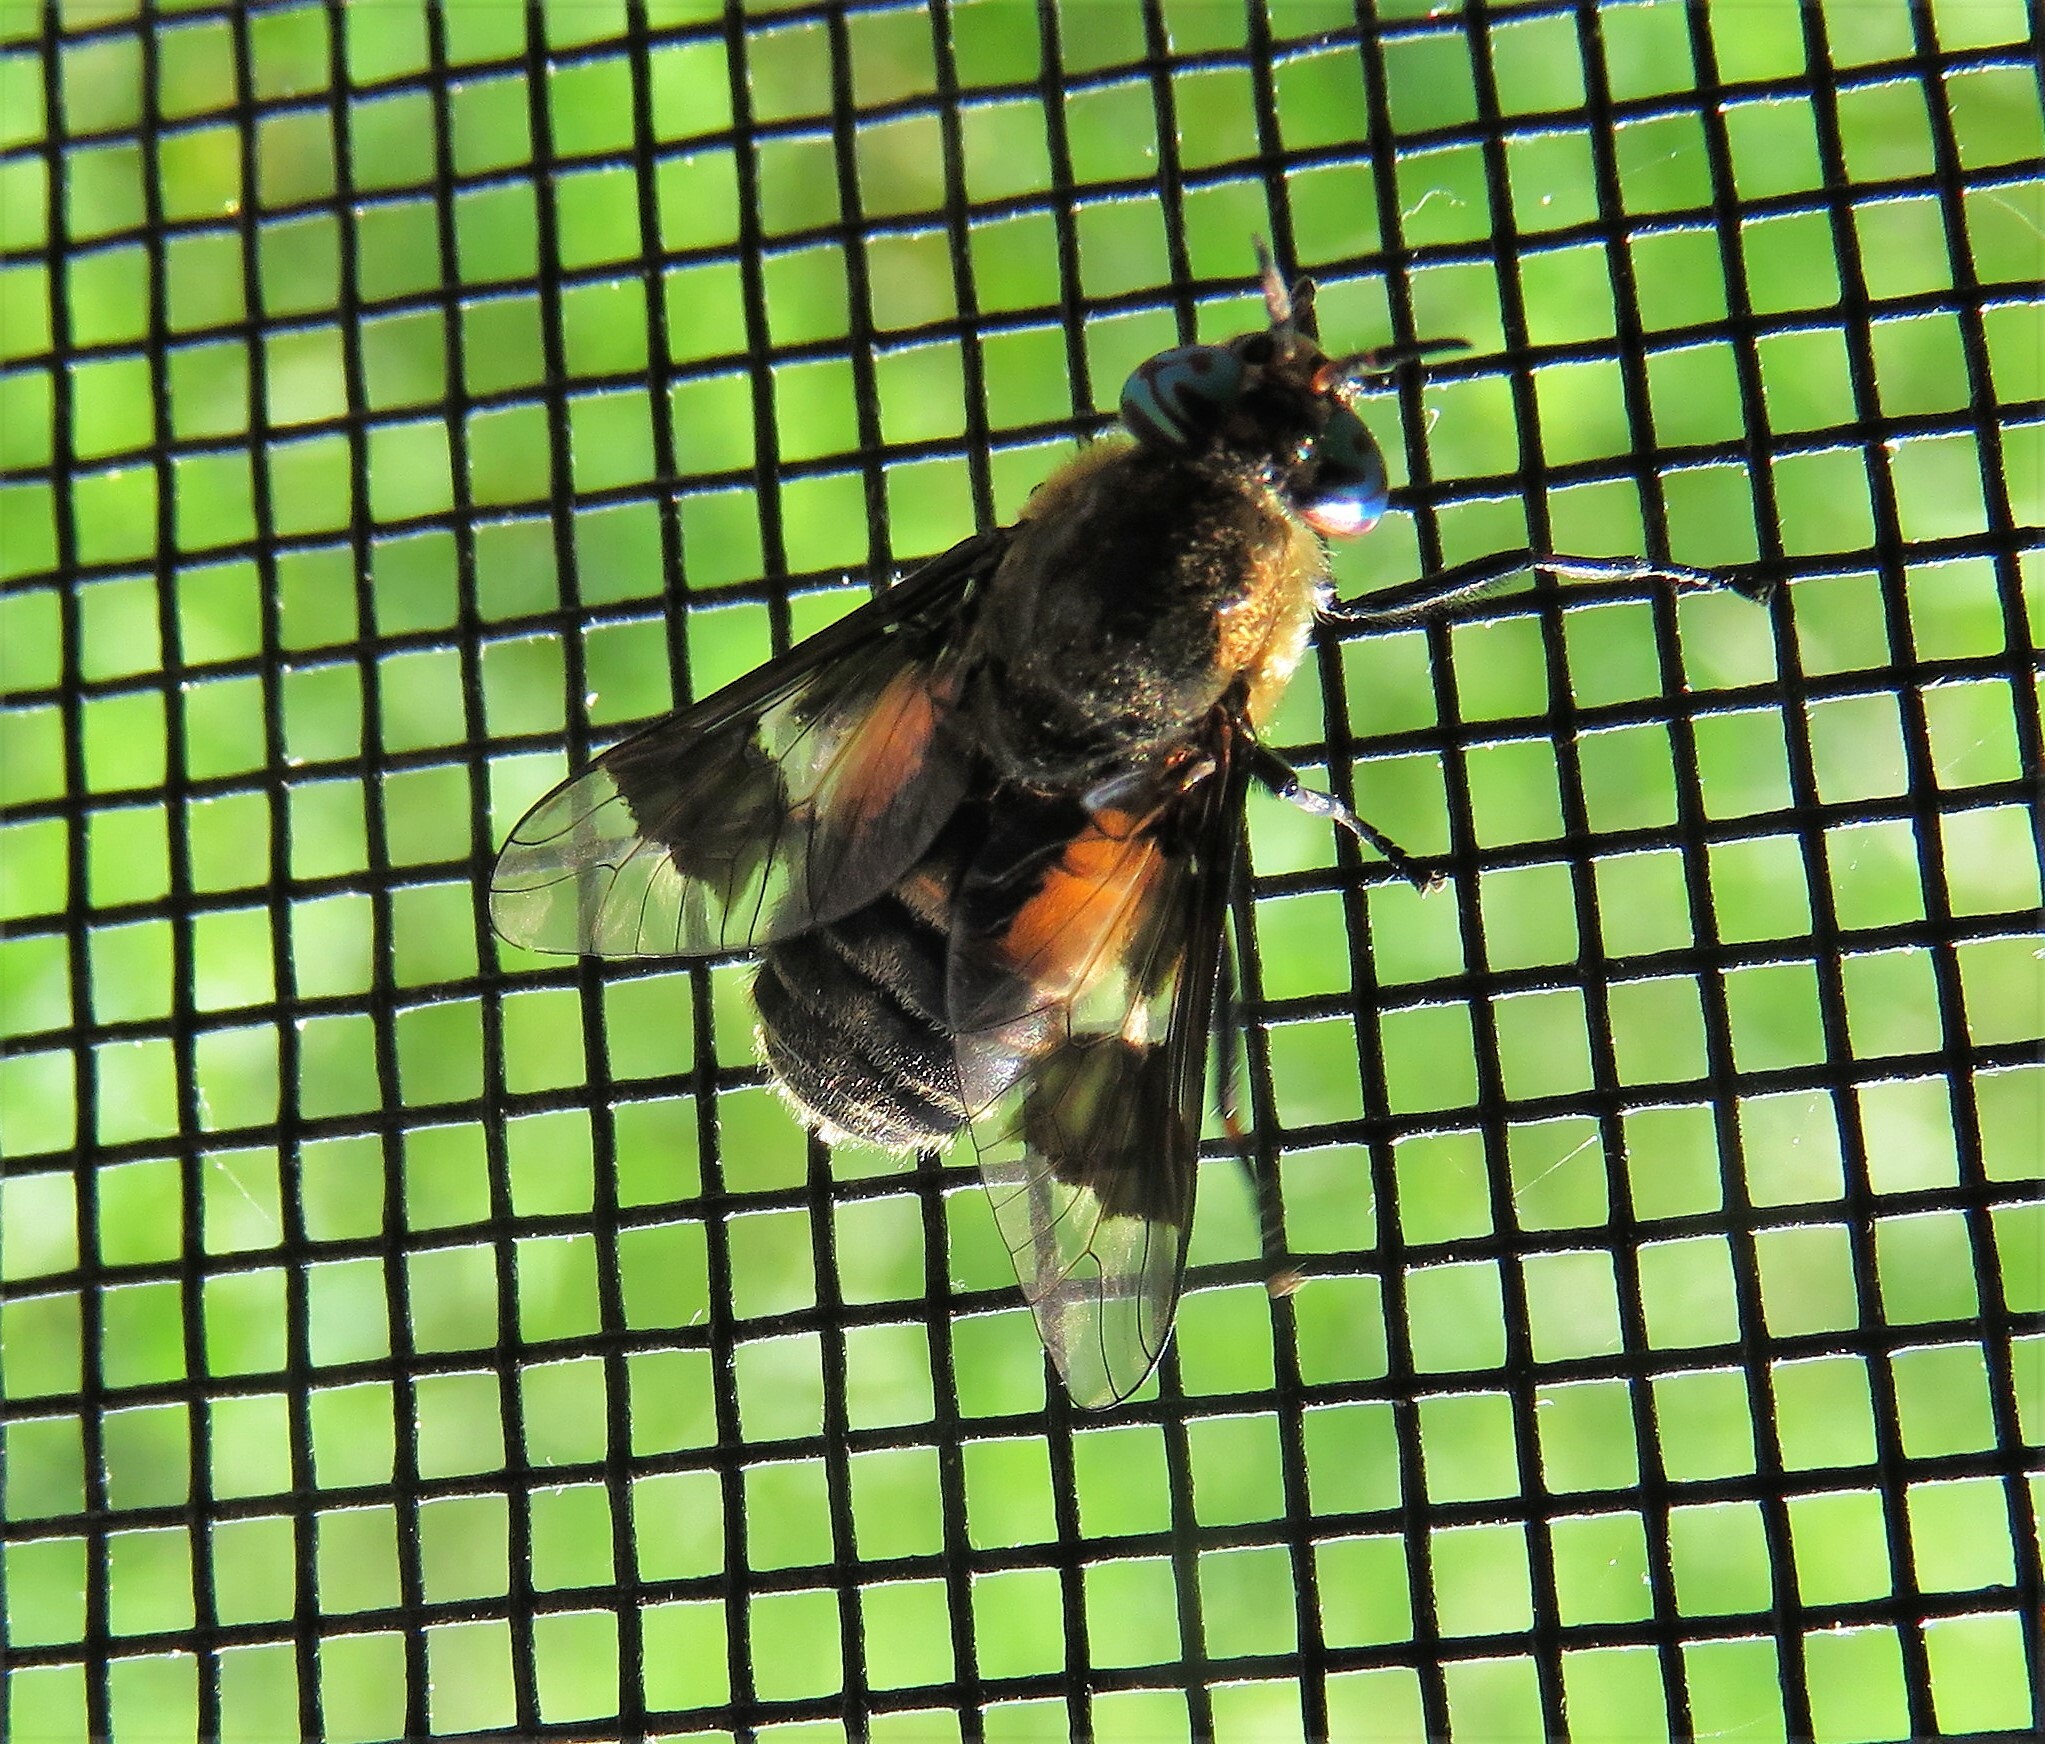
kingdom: Animalia
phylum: Arthropoda
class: Insecta
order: Diptera
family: Tabanidae
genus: Chrysops
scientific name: Chrysops excitans
